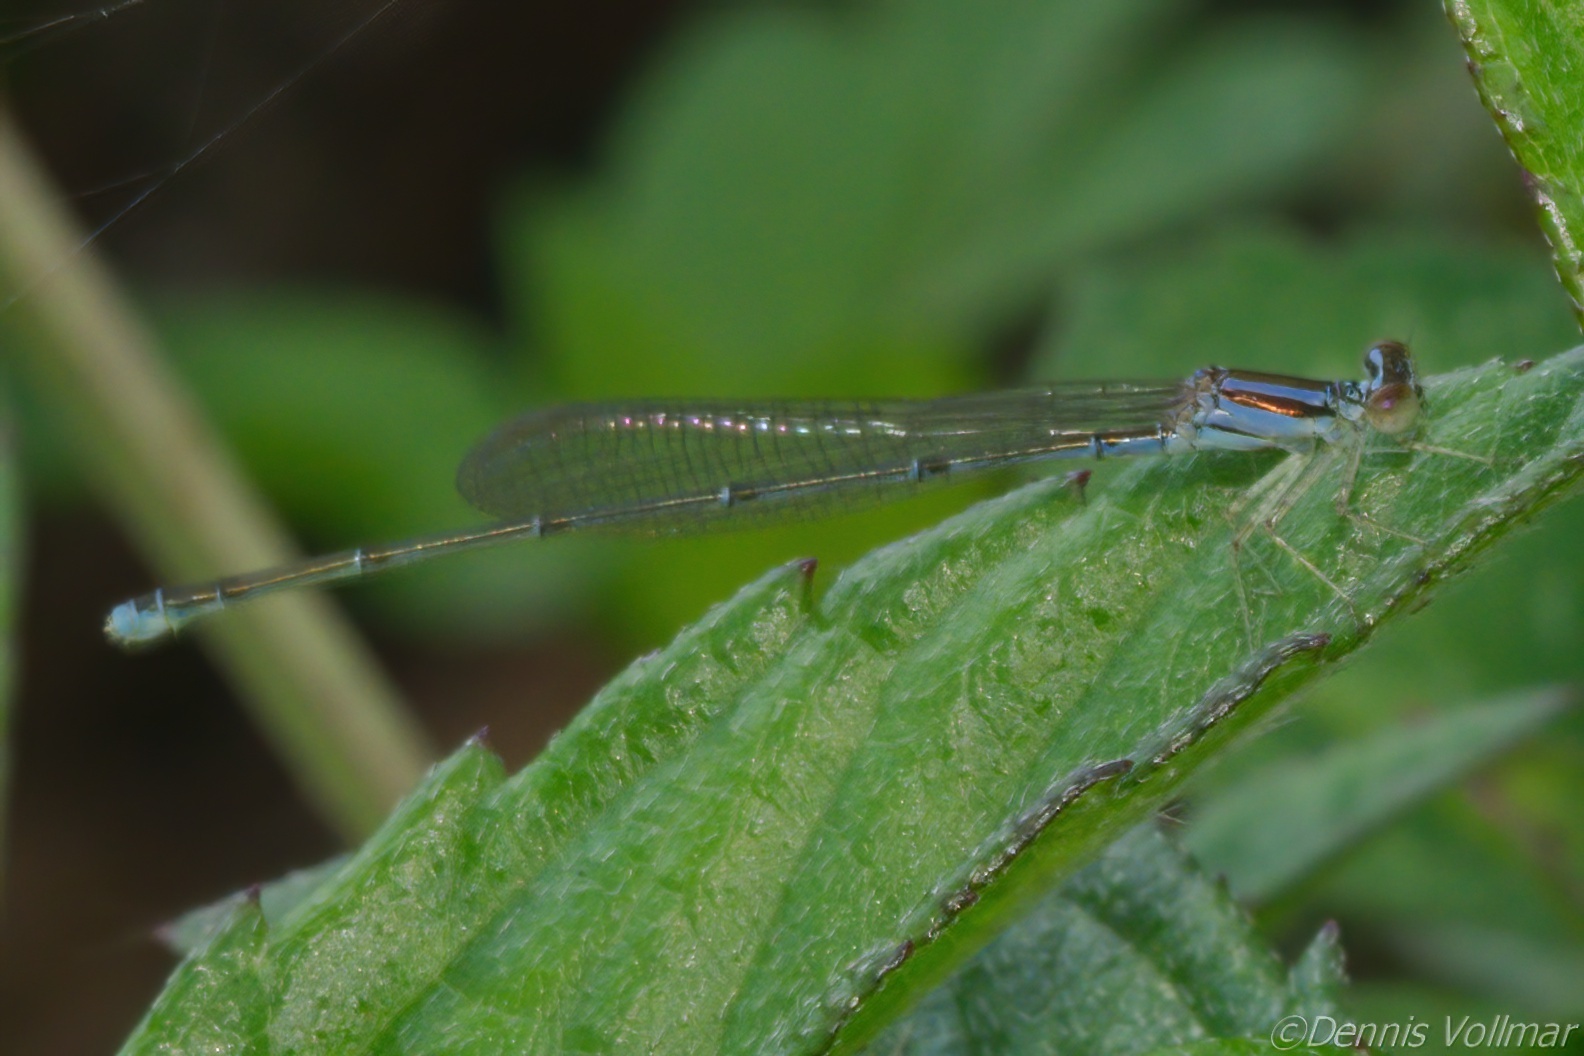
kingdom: Animalia
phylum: Arthropoda
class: Insecta
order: Odonata
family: Coenagrionidae
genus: Enallagma
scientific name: Enallagma pollutum
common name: Florida bluet
